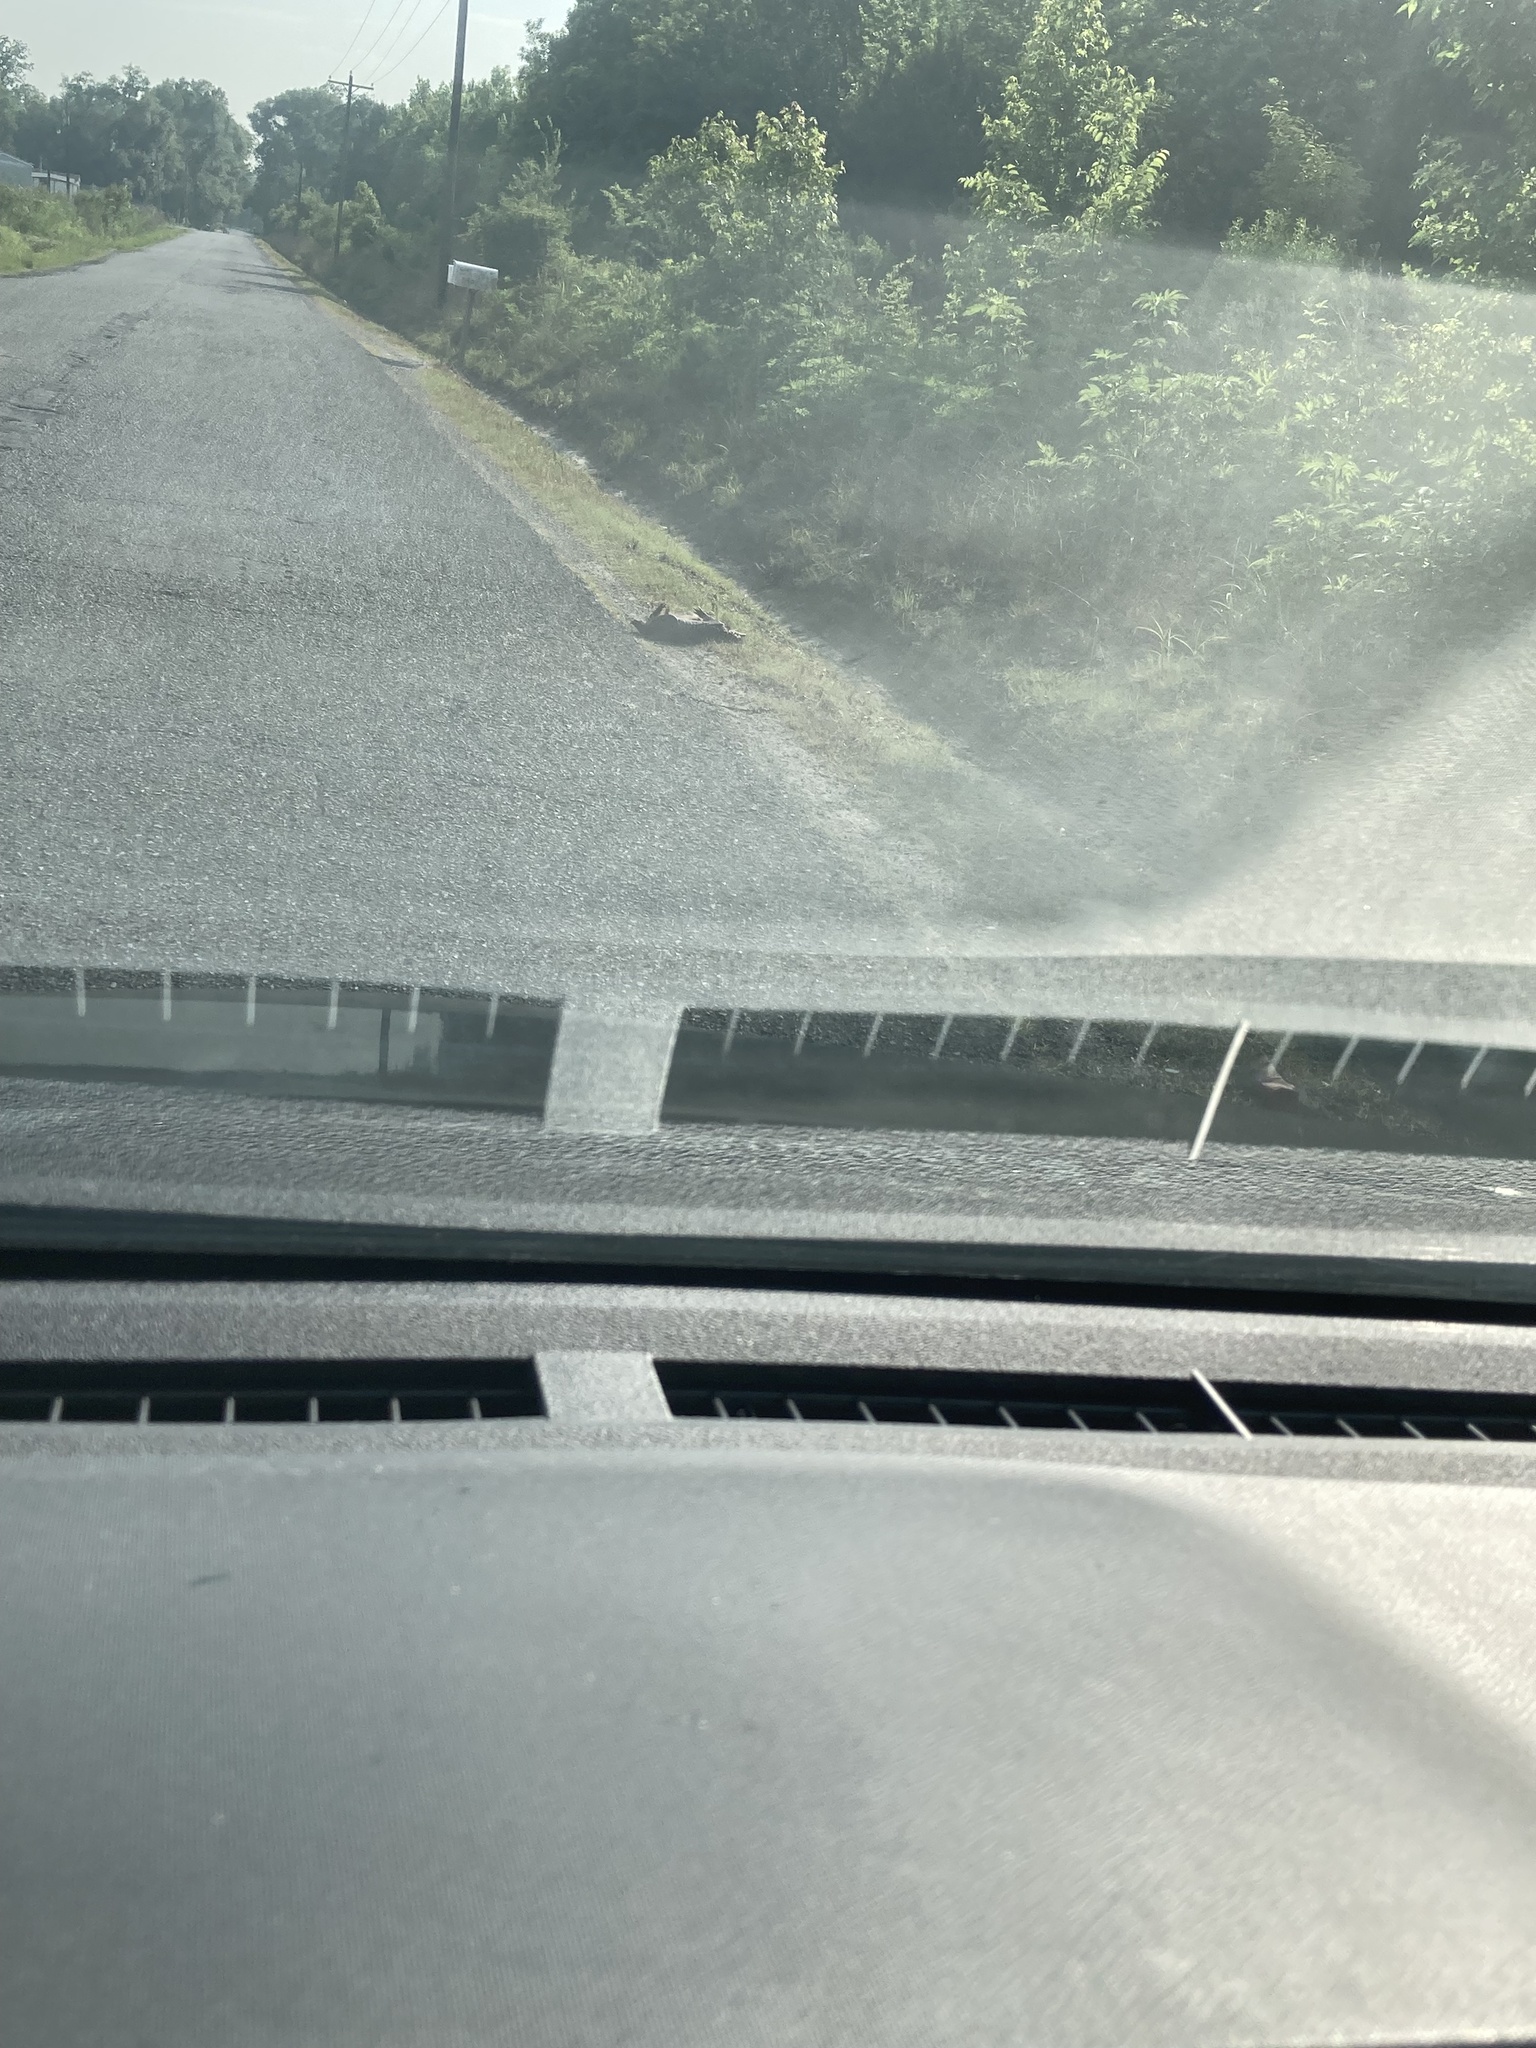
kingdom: Animalia
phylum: Chordata
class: Mammalia
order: Cingulata
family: Dasypodidae
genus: Dasypus
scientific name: Dasypus novemcinctus
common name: Nine-banded armadillo
